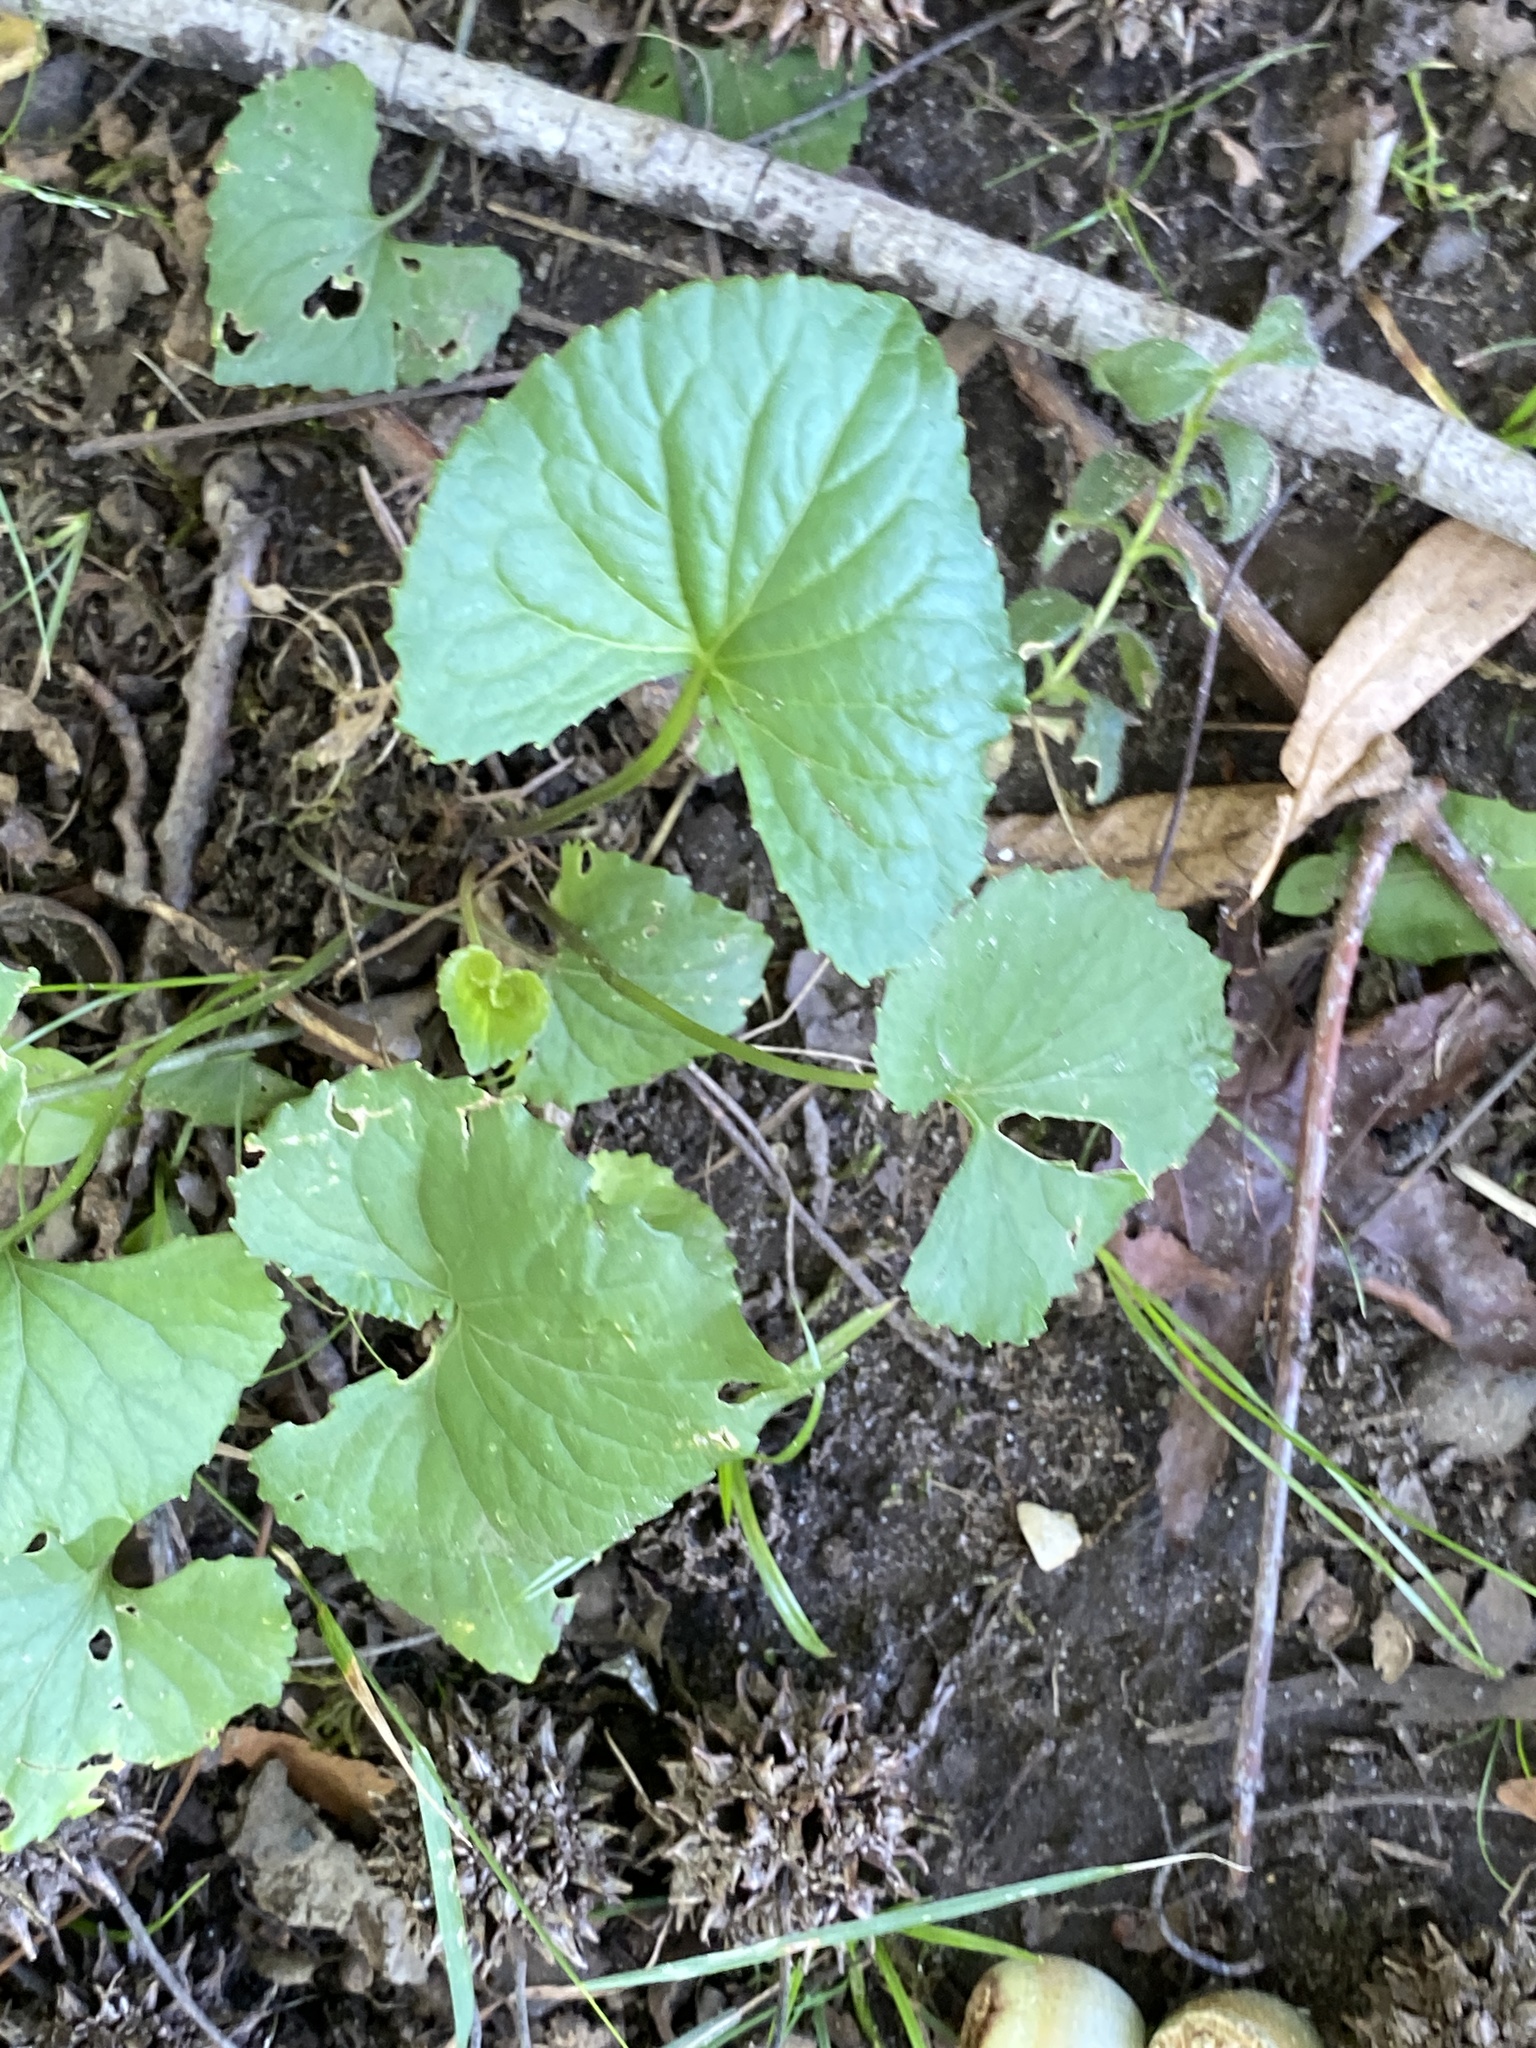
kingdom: Plantae
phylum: Tracheophyta
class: Magnoliopsida
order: Malpighiales
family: Violaceae
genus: Viola
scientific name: Viola sororia
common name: Dooryard violet
